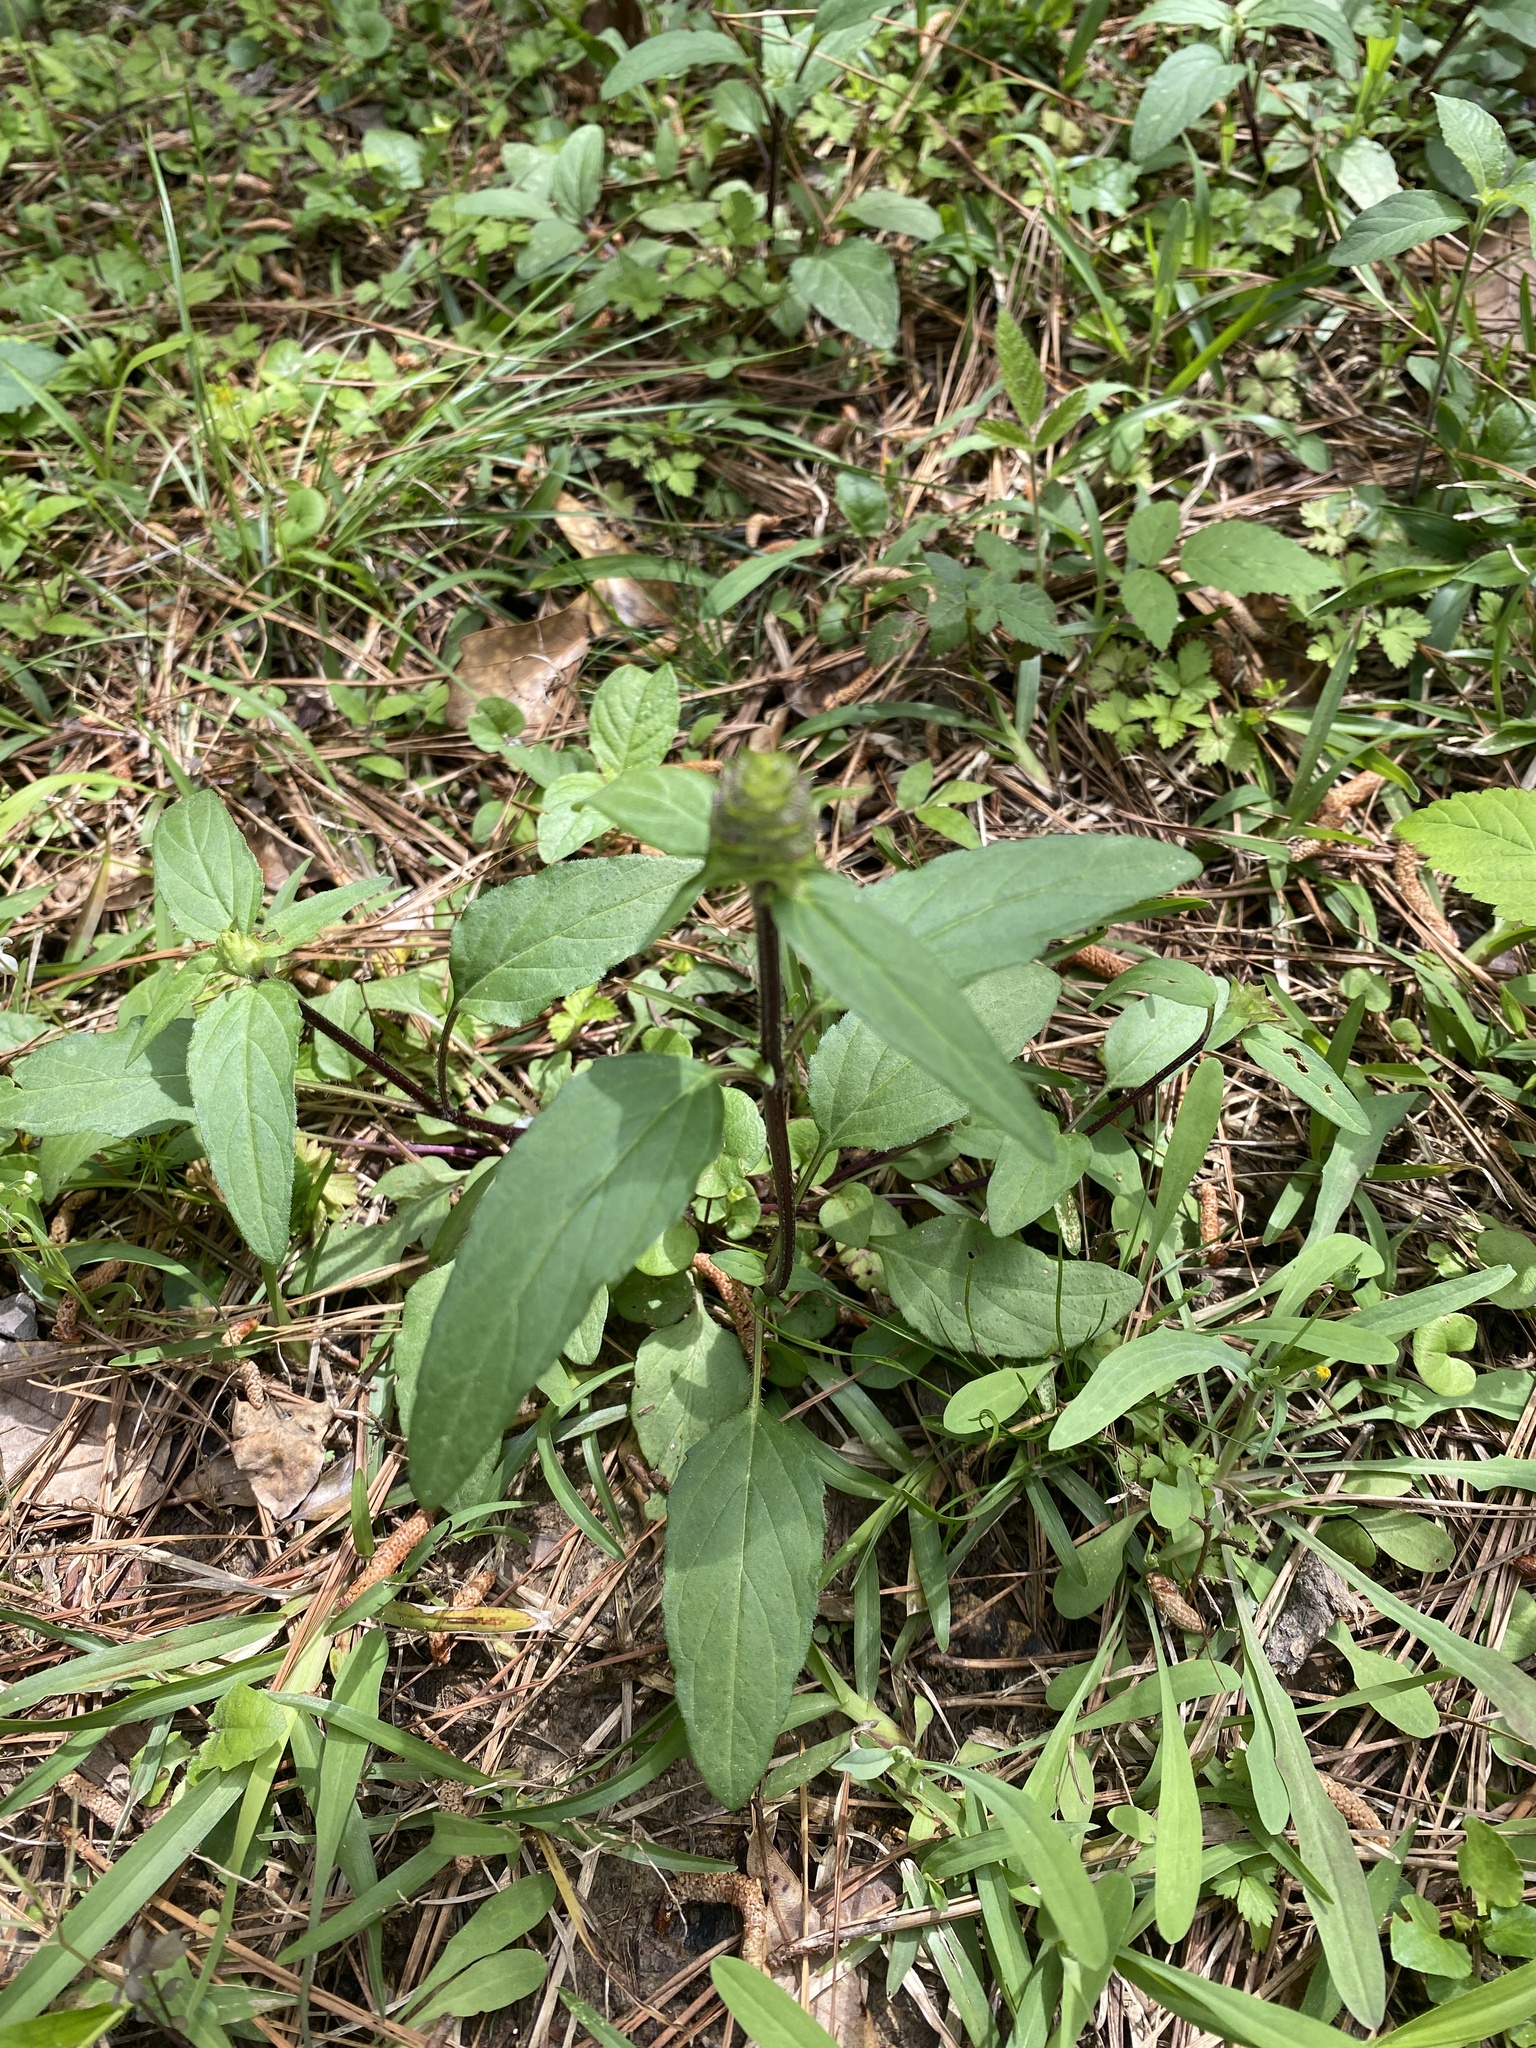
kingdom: Plantae
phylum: Tracheophyta
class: Magnoliopsida
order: Lamiales
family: Lamiaceae
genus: Prunella
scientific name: Prunella vulgaris
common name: Heal-all
